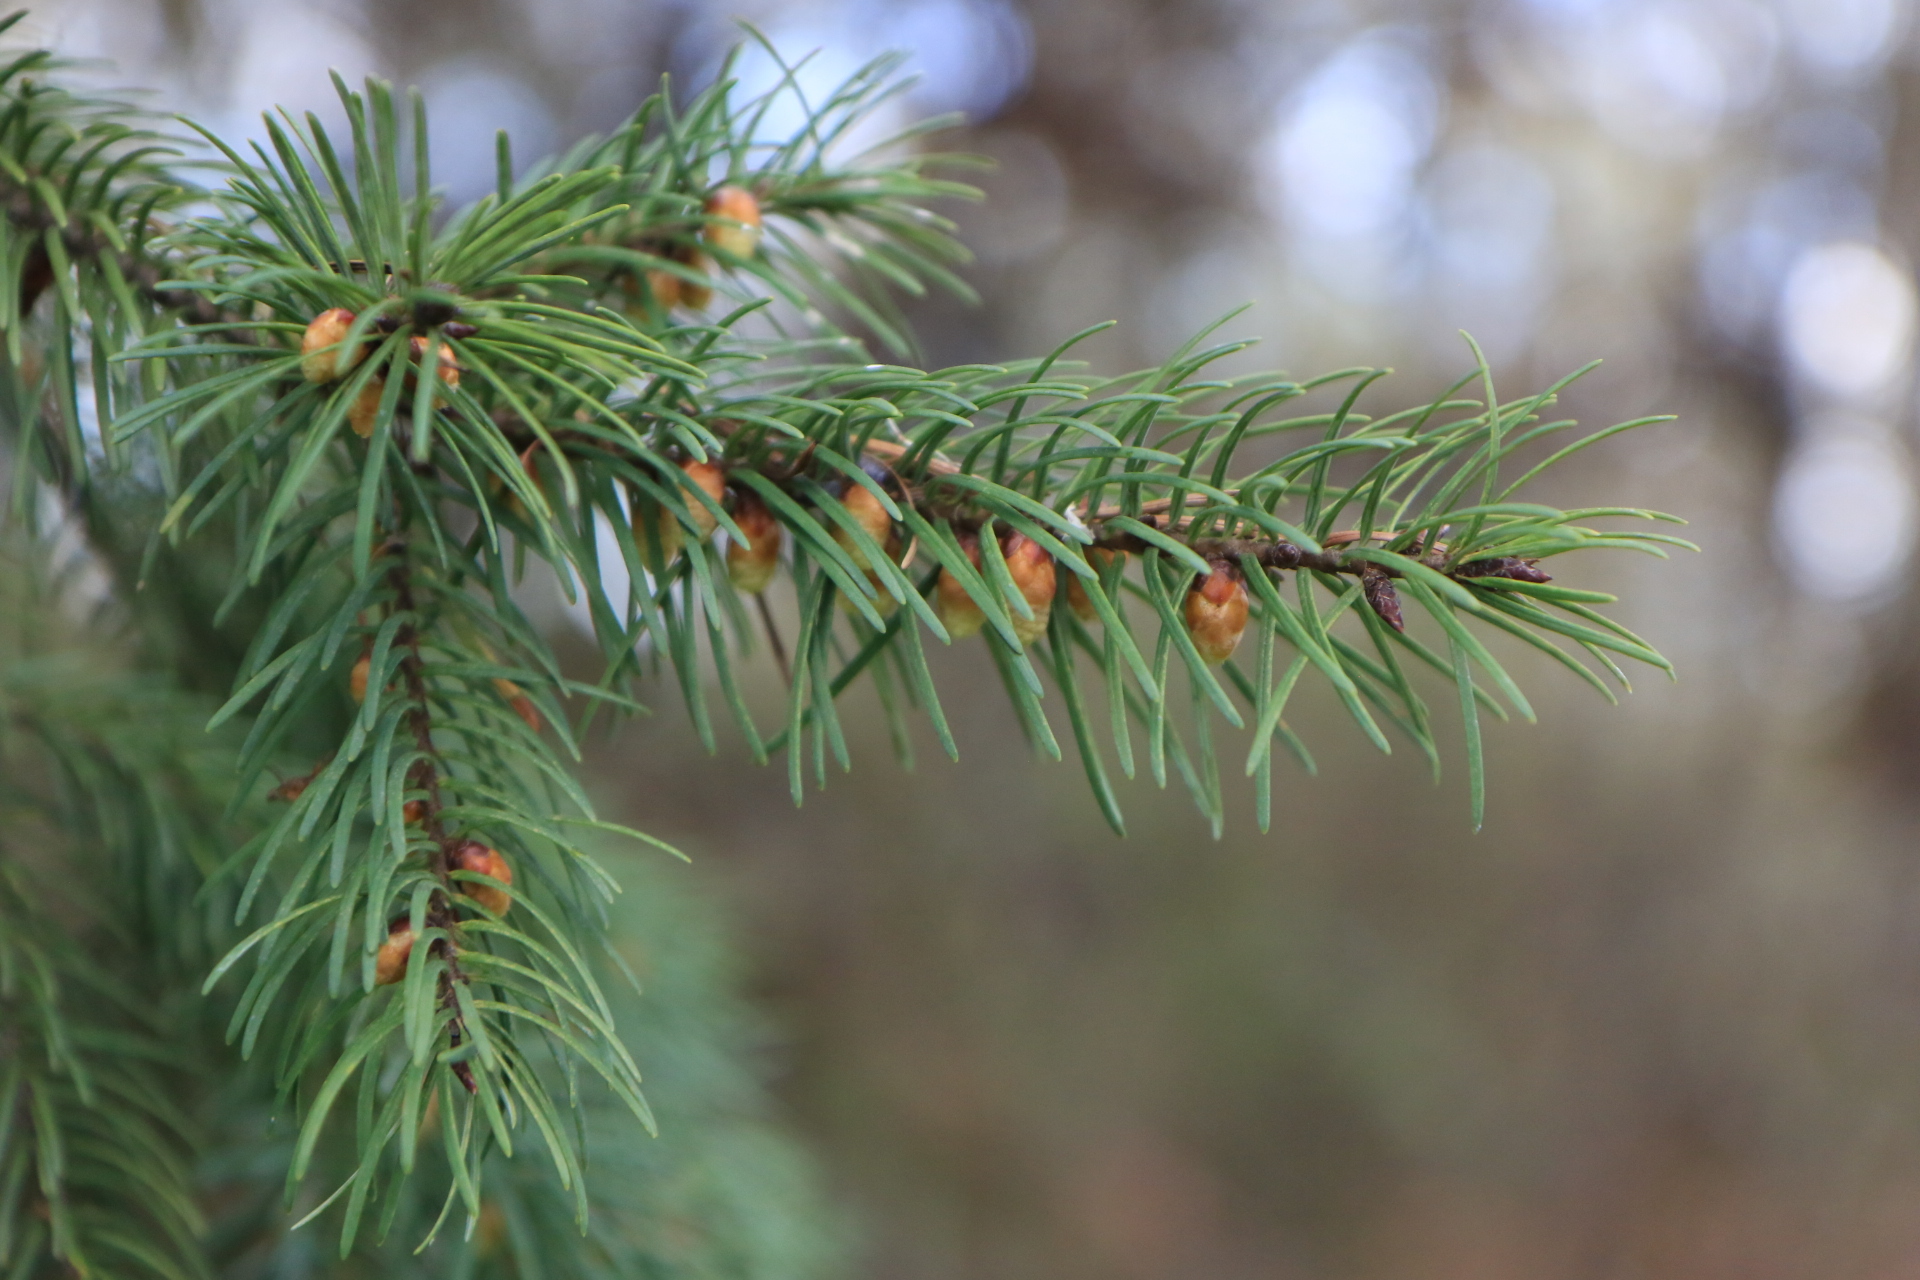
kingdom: Plantae
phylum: Tracheophyta
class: Pinopsida
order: Pinales
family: Pinaceae
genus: Pseudotsuga
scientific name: Pseudotsuga menziesii
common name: Douglas fir
